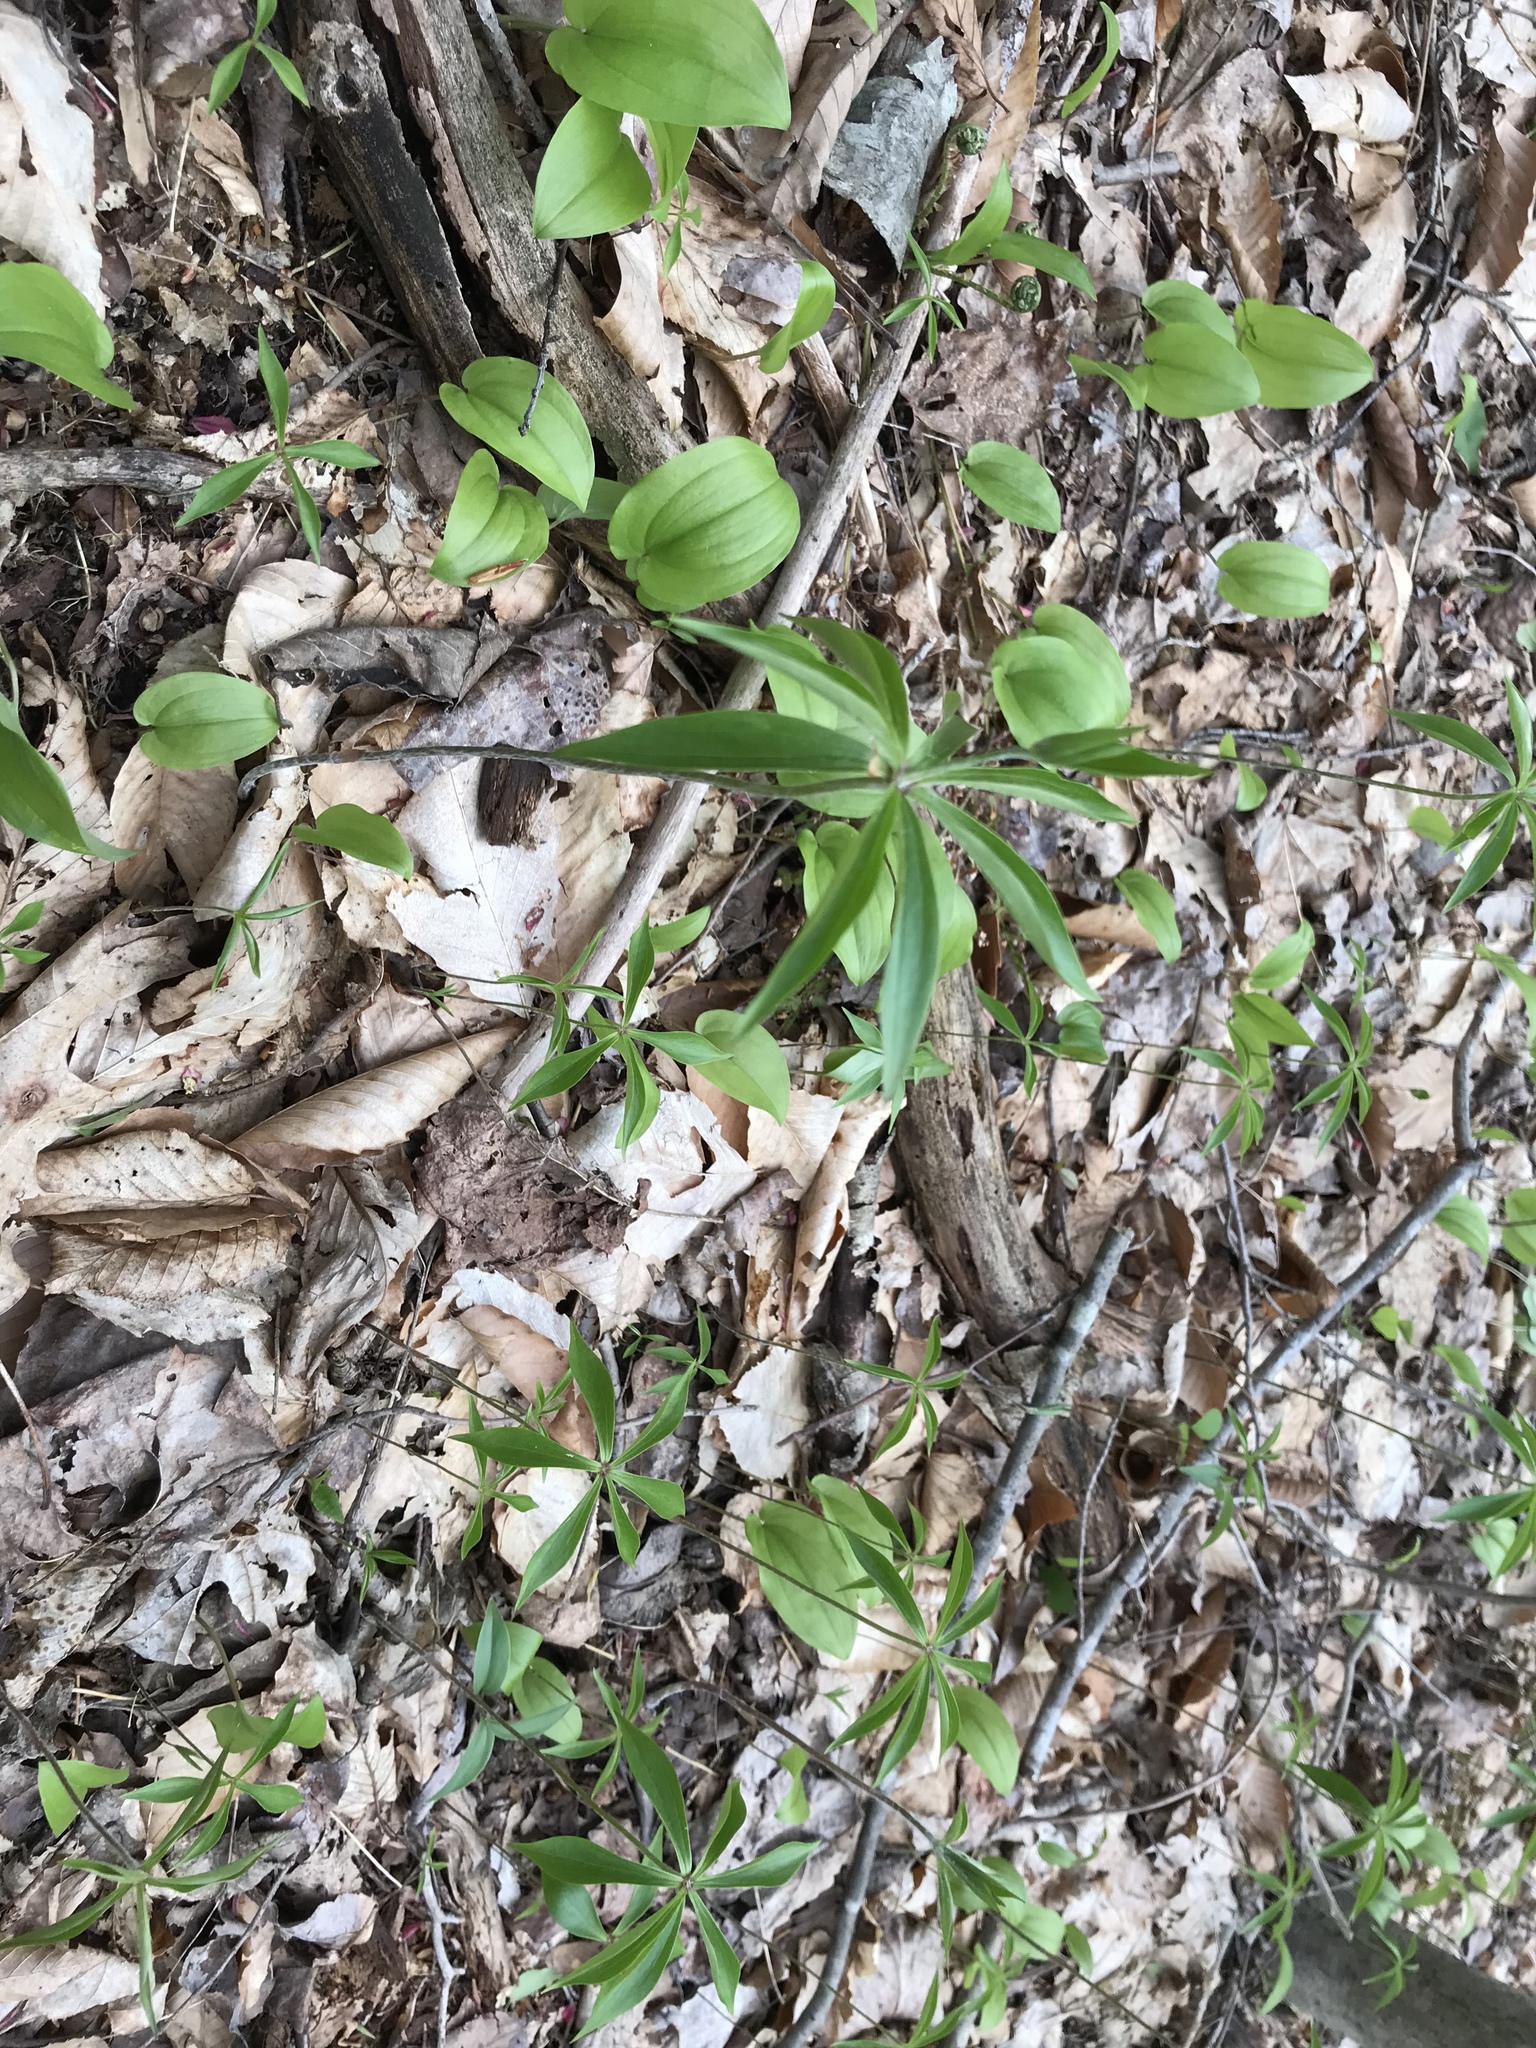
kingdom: Plantae
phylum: Tracheophyta
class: Liliopsida
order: Liliales
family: Liliaceae
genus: Medeola
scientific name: Medeola virginiana
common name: Indian cucumber-root
